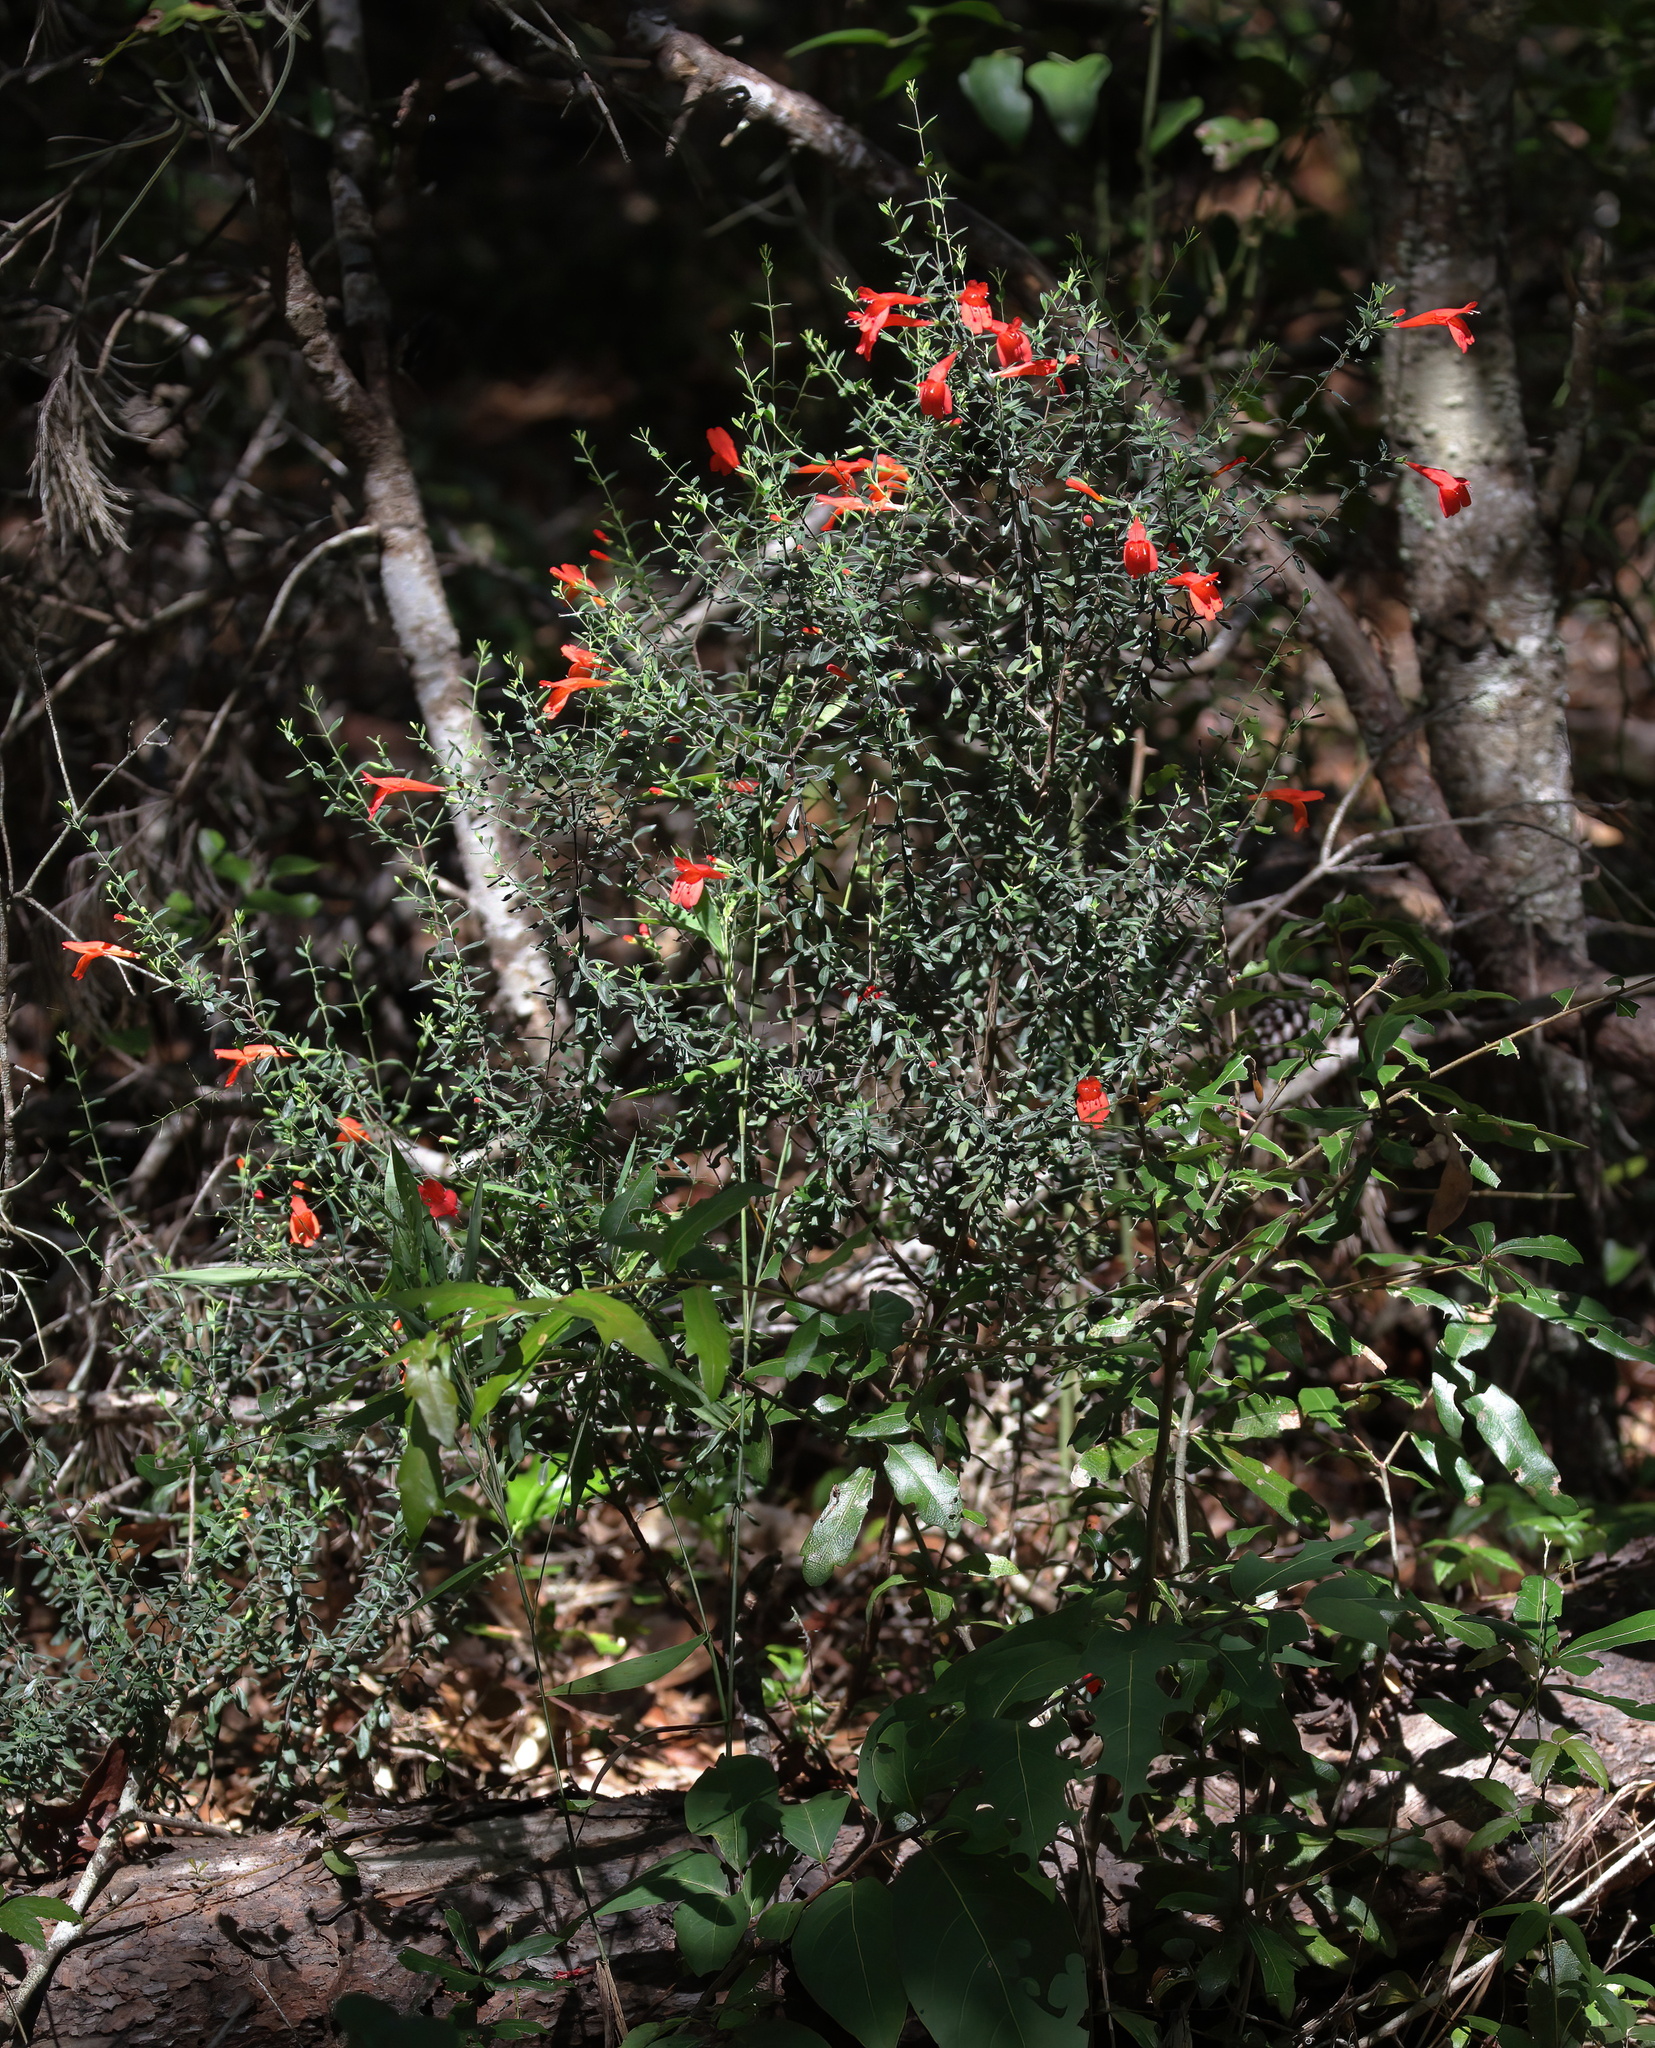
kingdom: Plantae
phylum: Tracheophyta
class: Magnoliopsida
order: Lamiales
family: Lamiaceae
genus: Clinopodium
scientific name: Clinopodium coccineum
